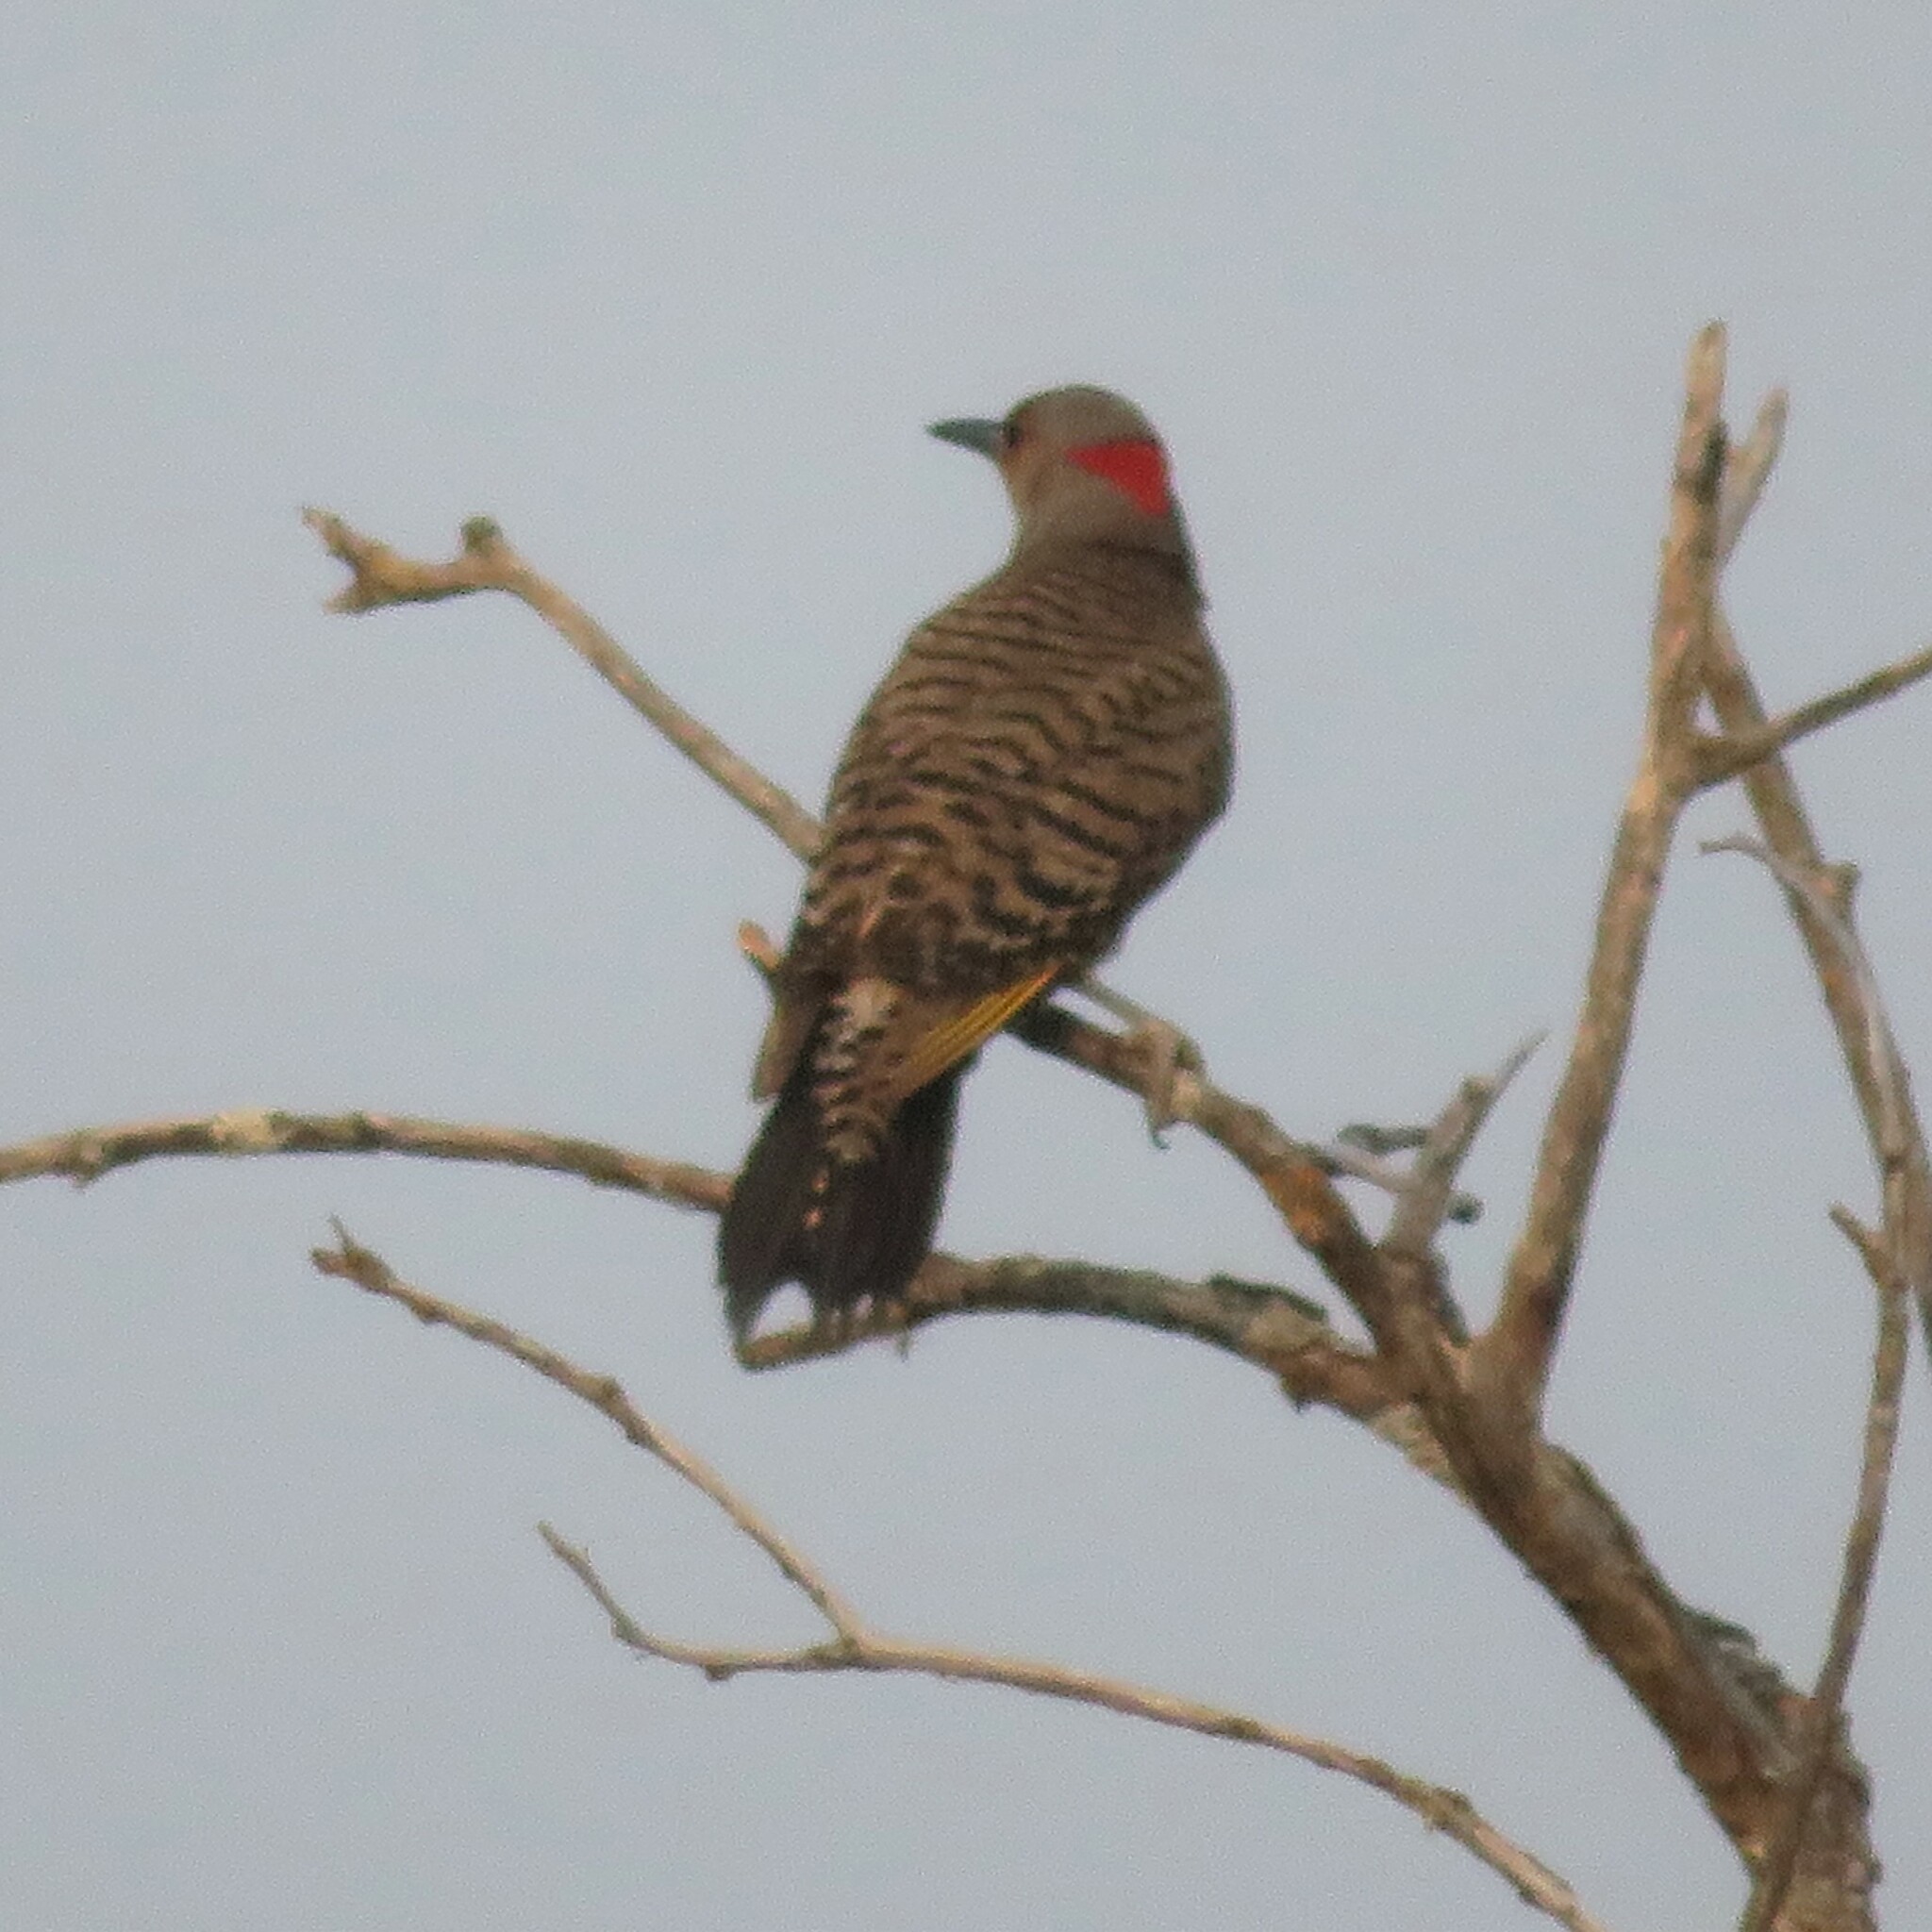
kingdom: Animalia
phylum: Chordata
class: Aves
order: Piciformes
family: Picidae
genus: Colaptes
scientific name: Colaptes auratus
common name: Northern flicker
